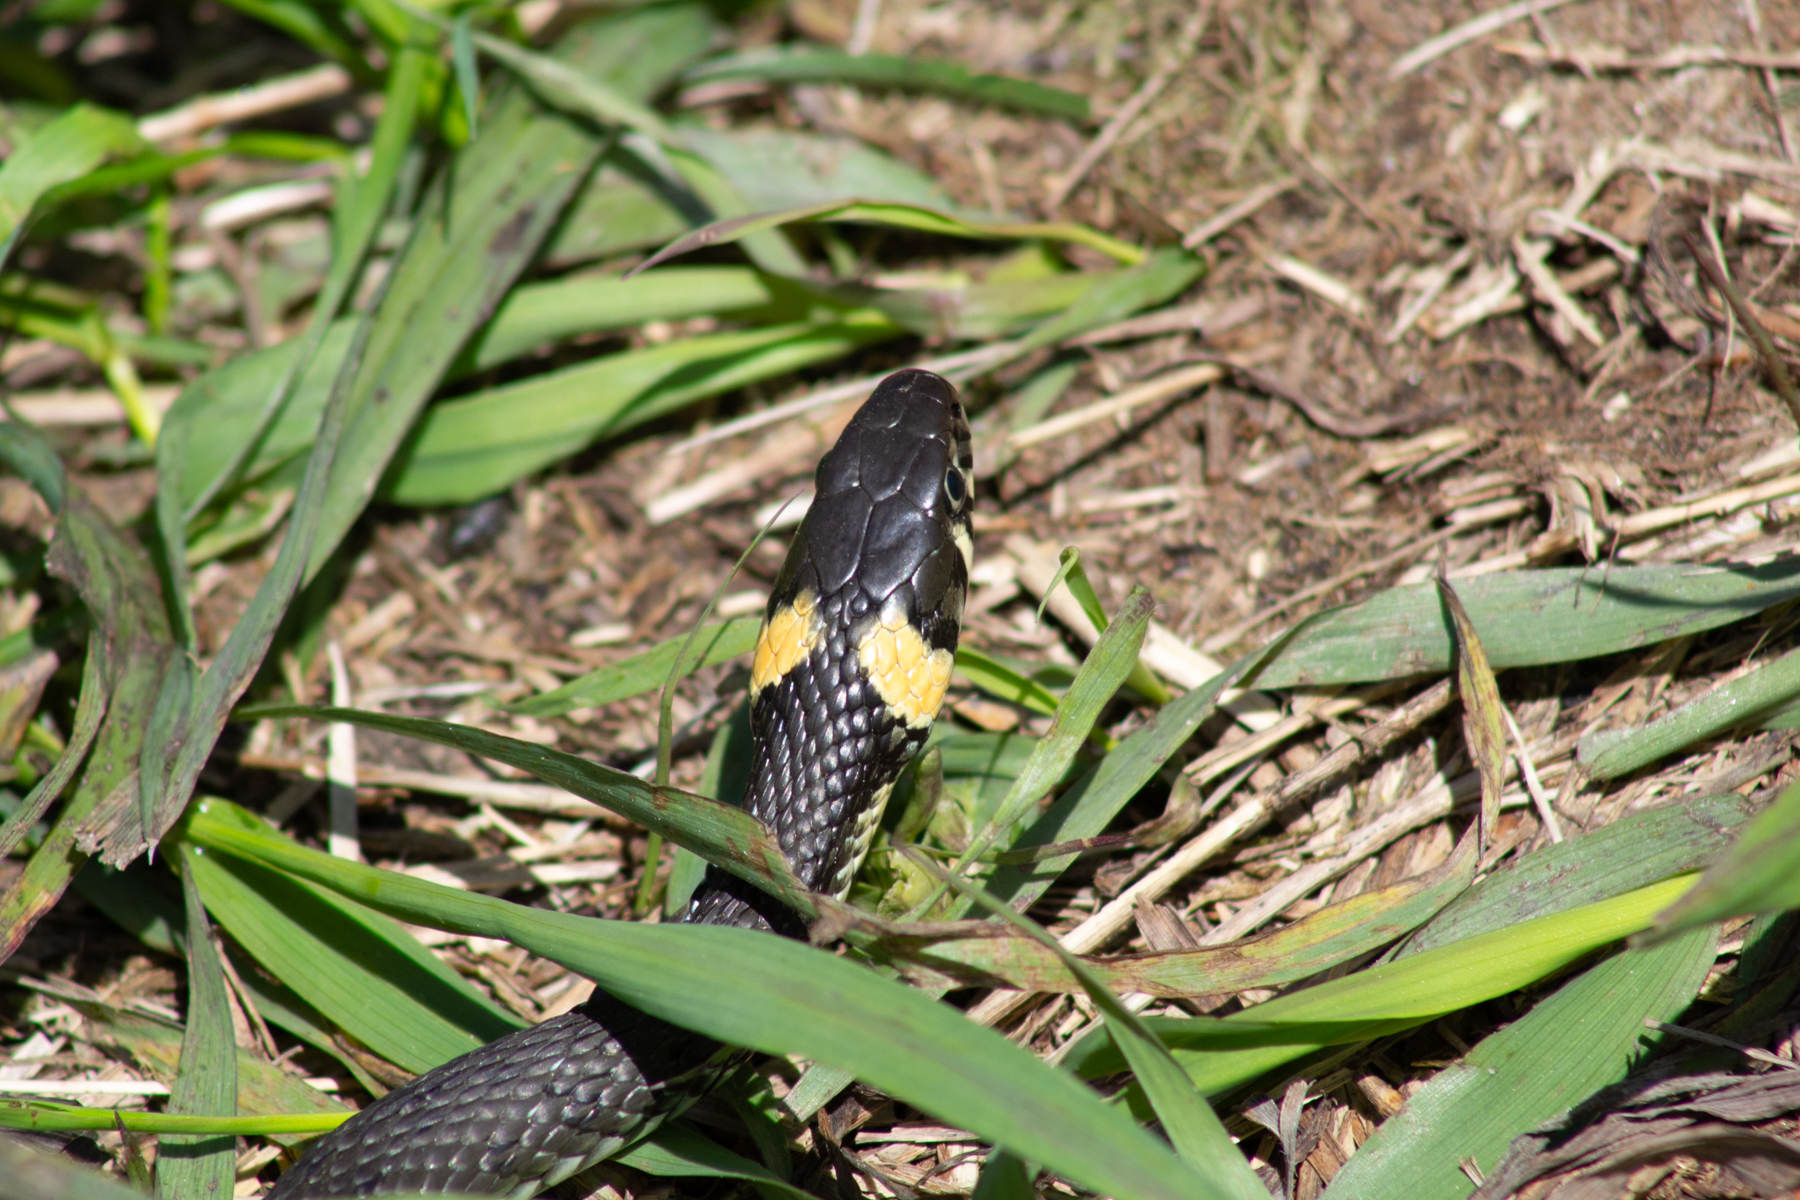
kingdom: Animalia
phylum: Chordata
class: Squamata
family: Colubridae
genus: Natrix
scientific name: Natrix natrix
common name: Grass snake
